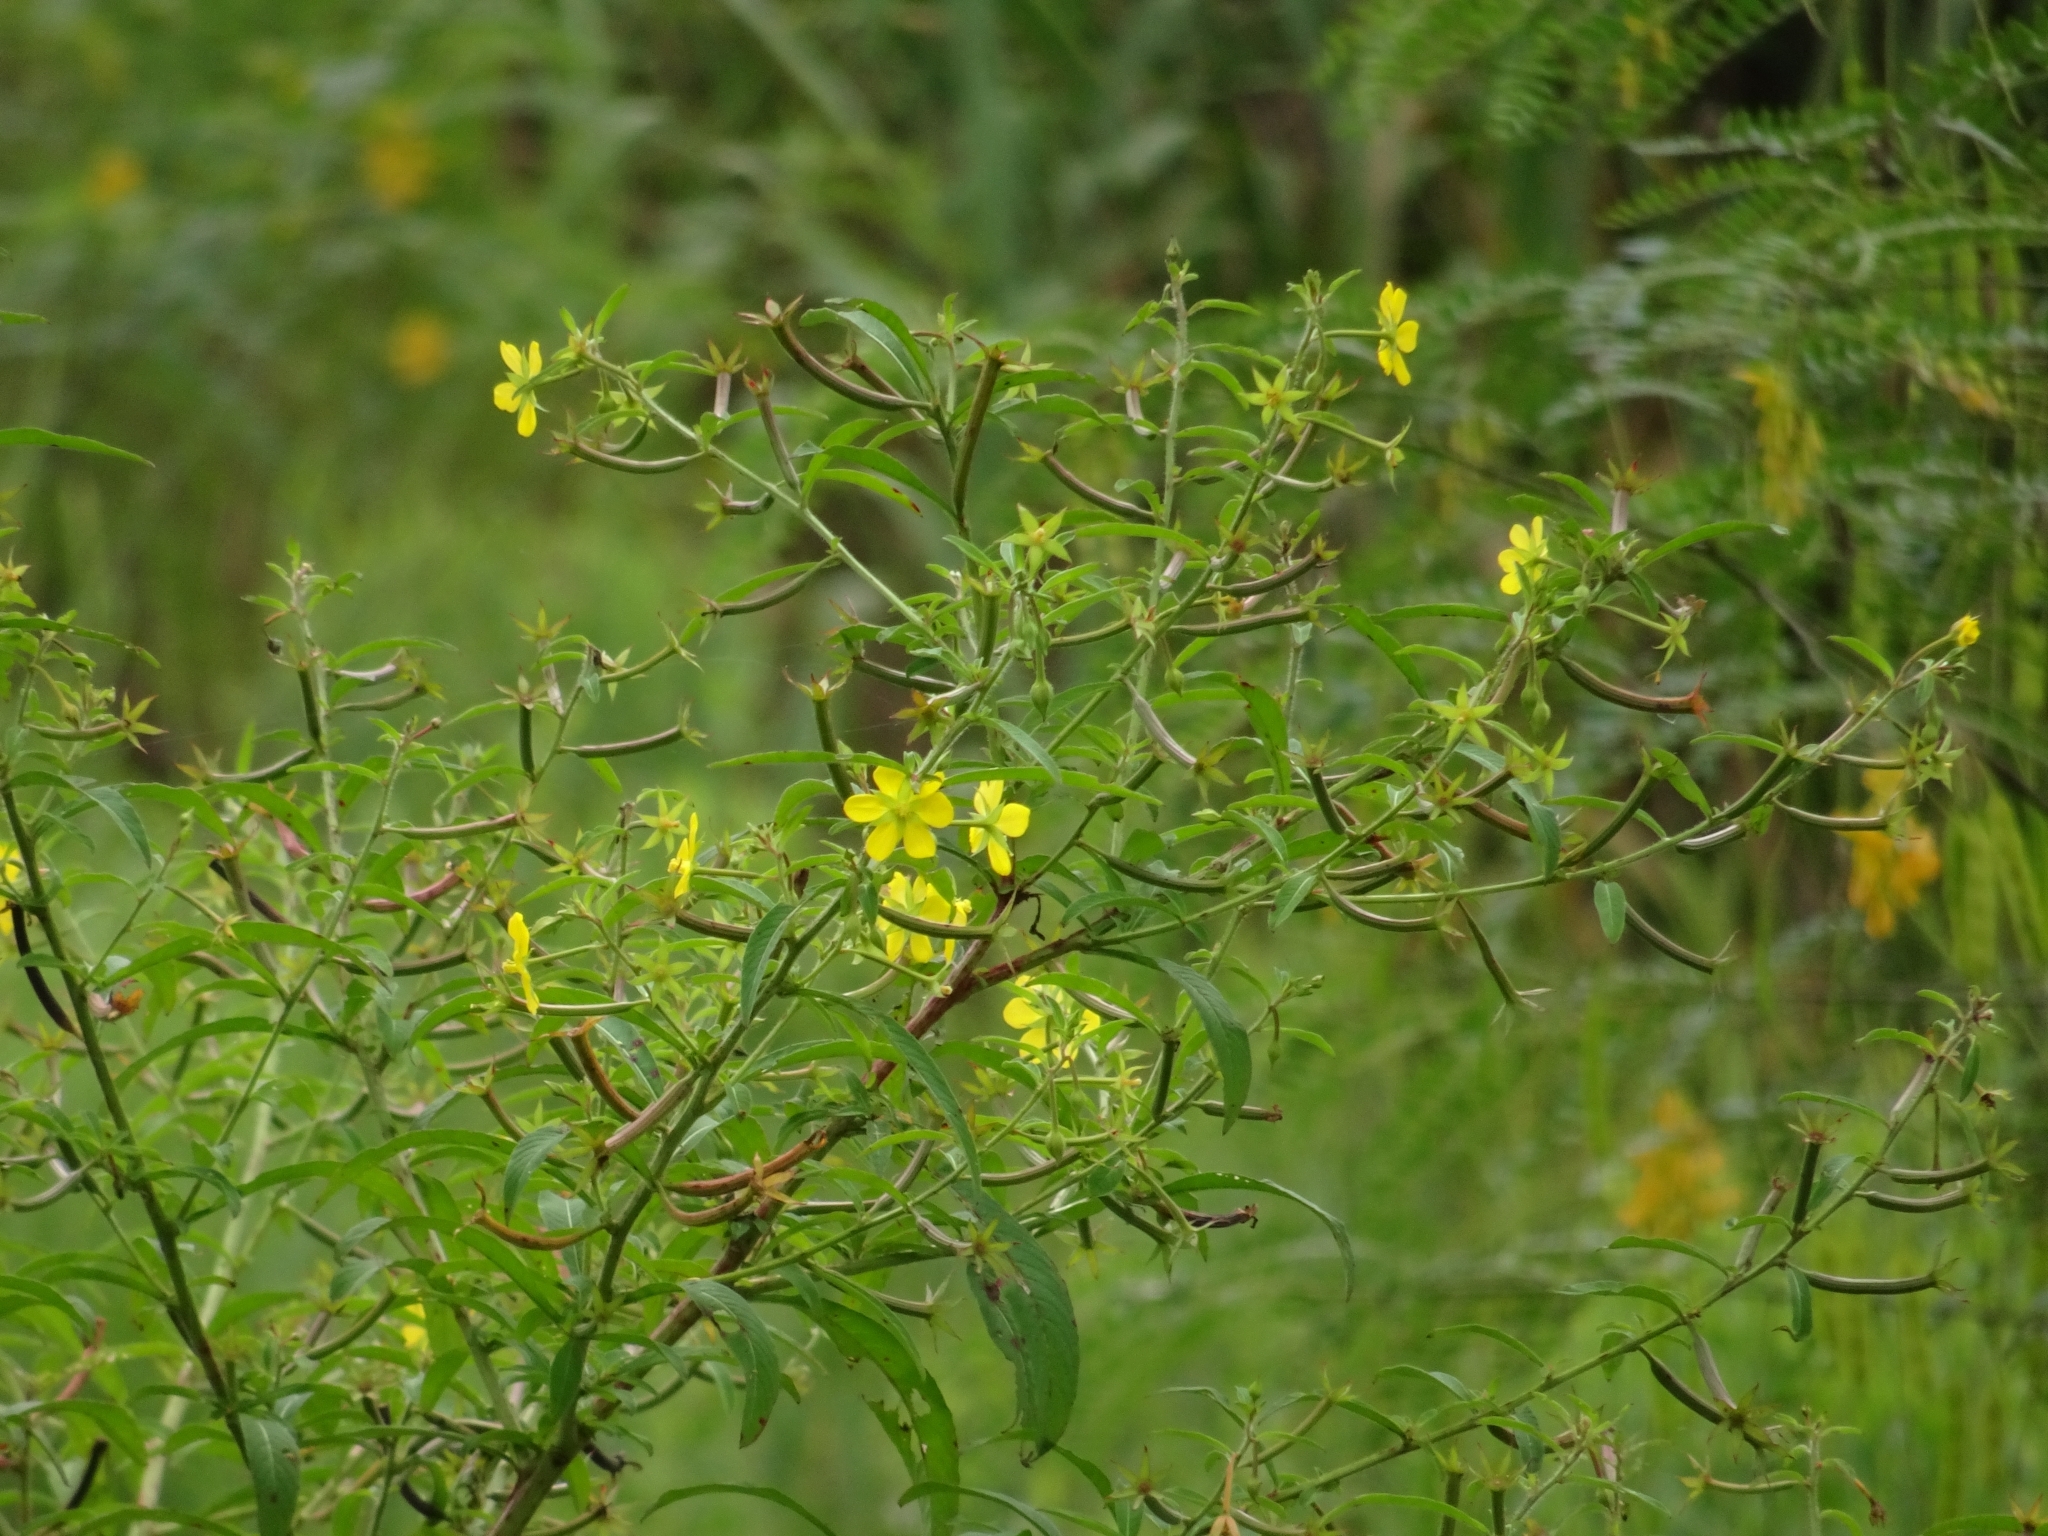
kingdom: Plantae
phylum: Tracheophyta
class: Magnoliopsida
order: Myrtales
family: Onagraceae
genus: Ludwigia
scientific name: Ludwigia leptocarpa
